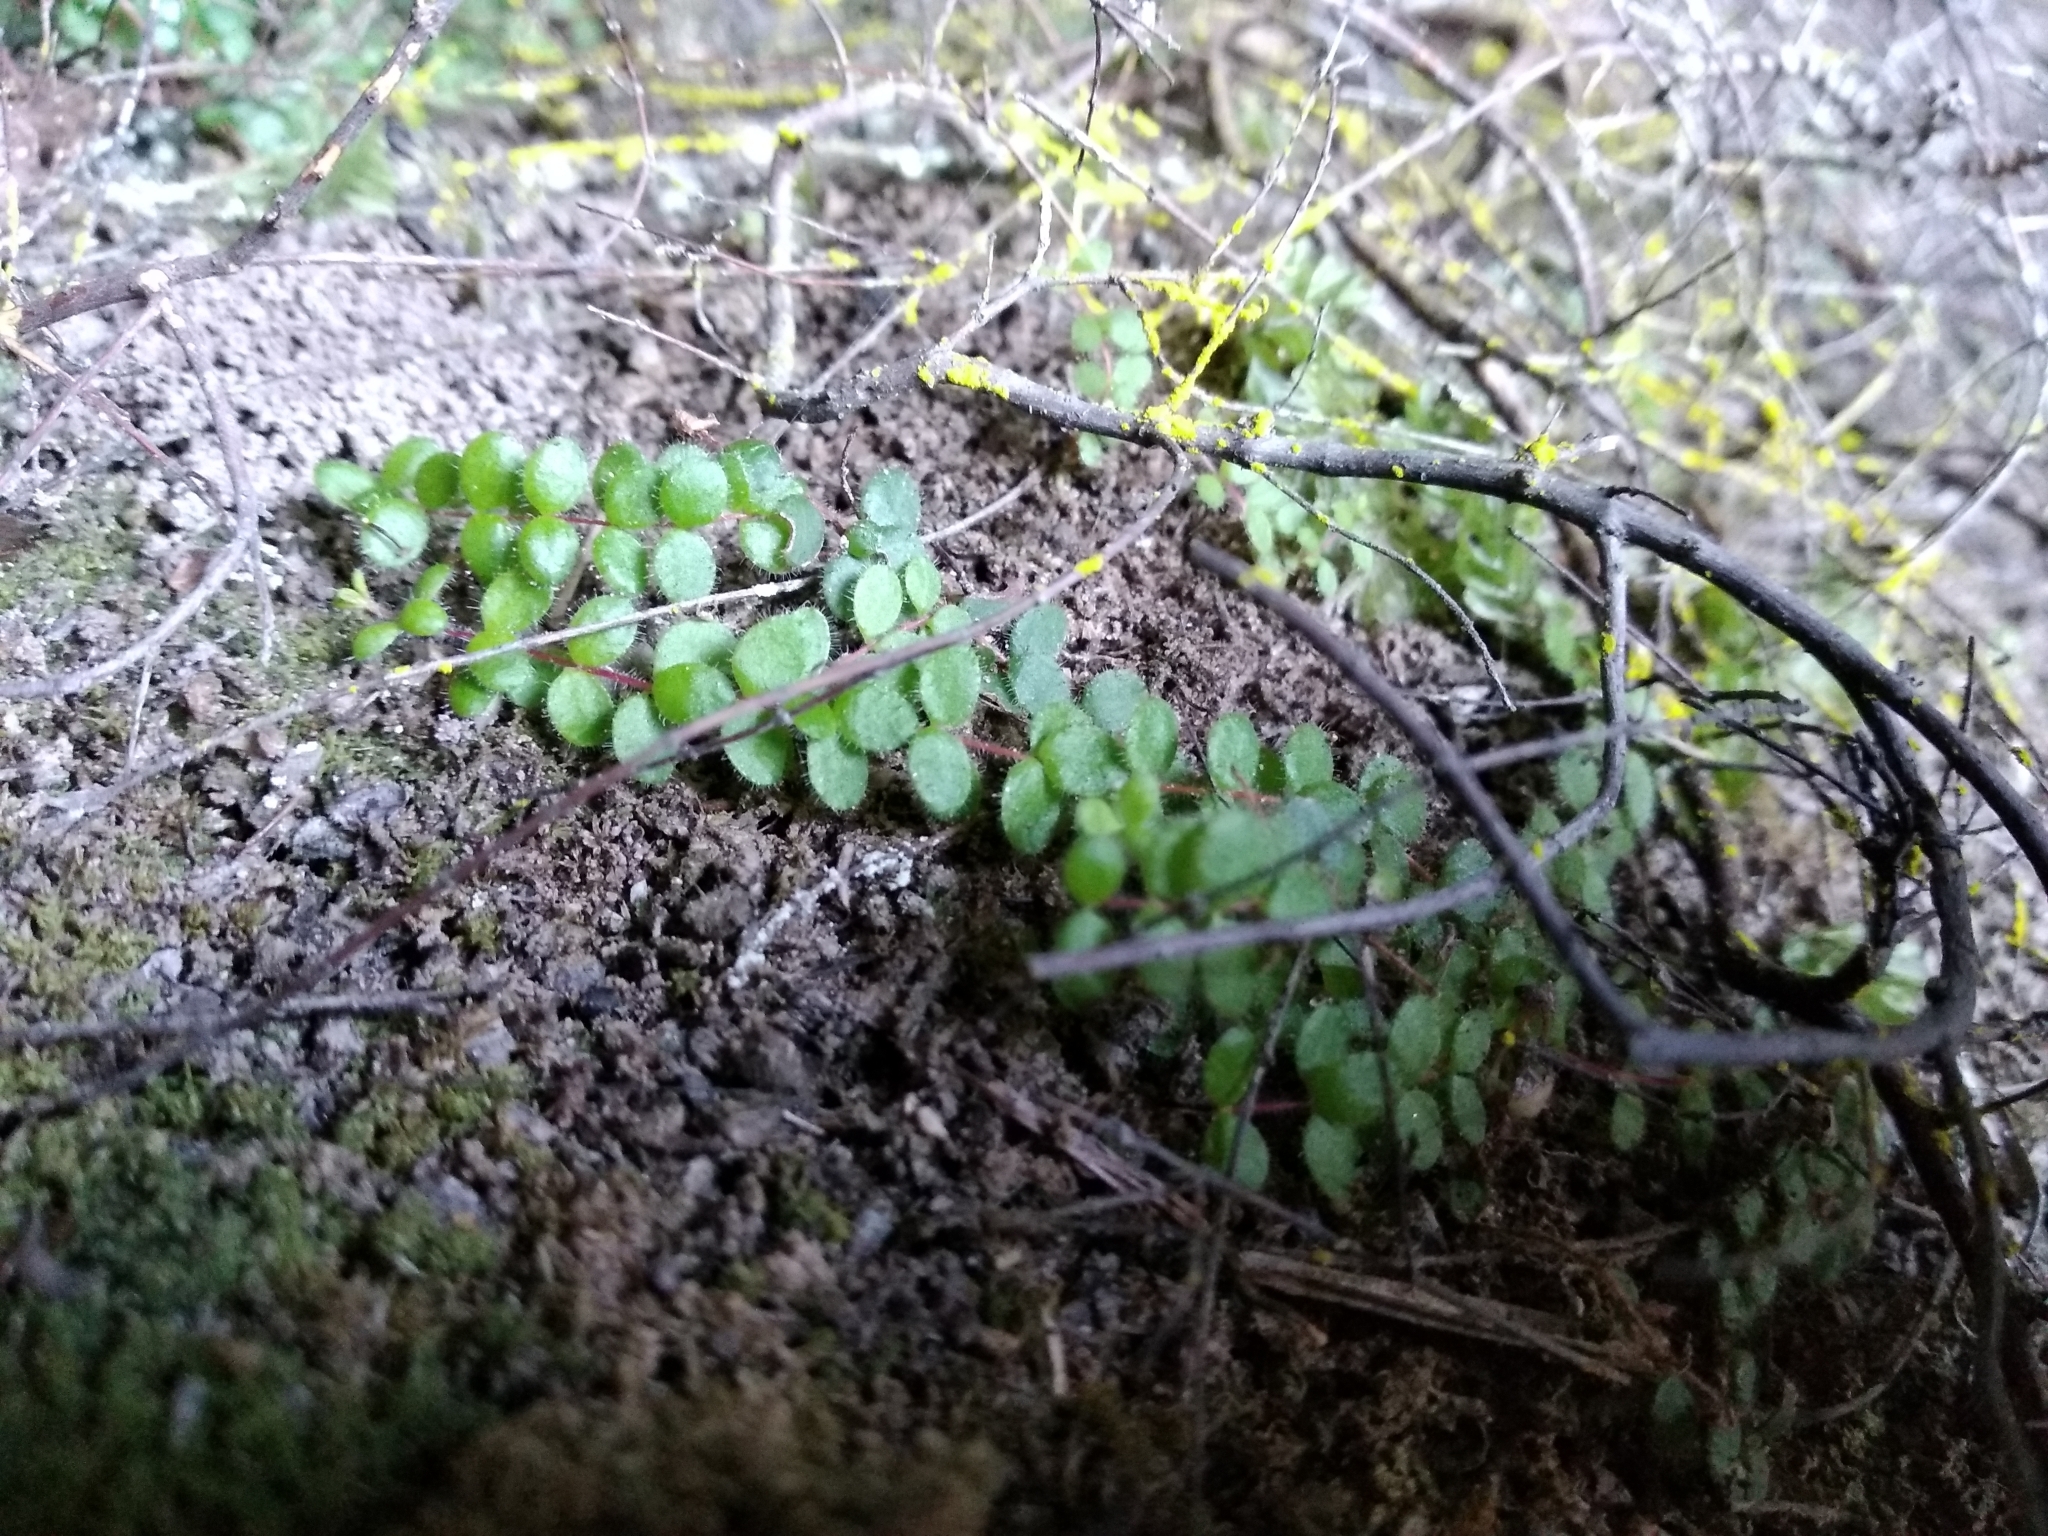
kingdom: Plantae
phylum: Tracheophyta
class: Magnoliopsida
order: Ericales
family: Ericaceae
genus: Erica
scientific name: Erica oxycoccifolia
